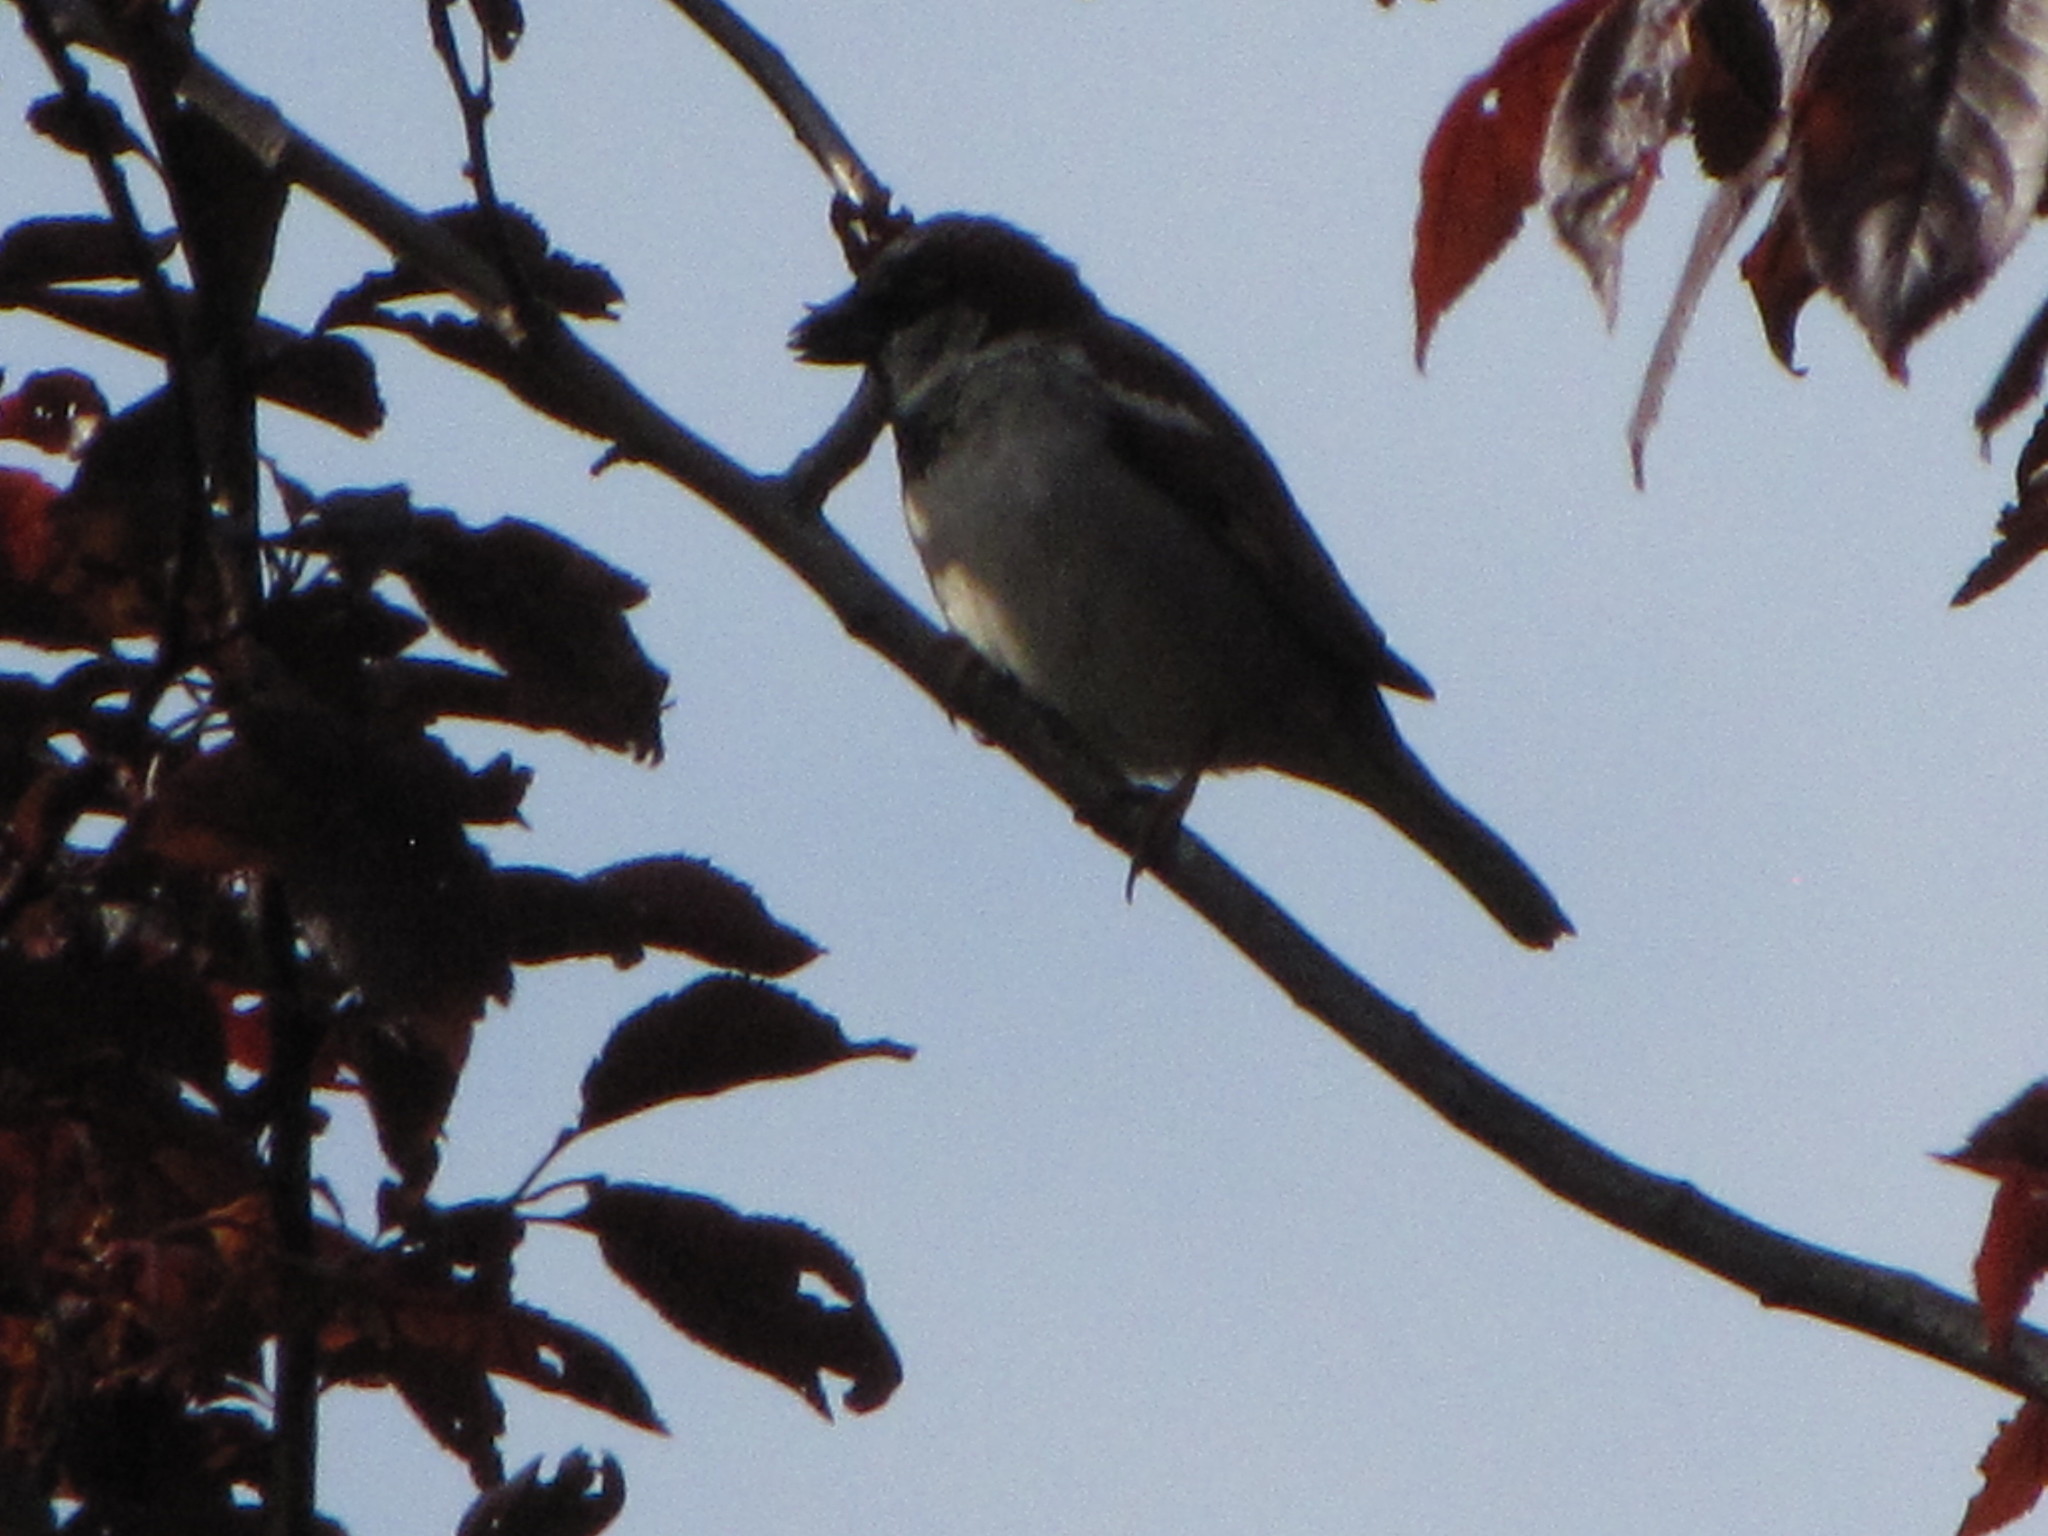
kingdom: Animalia
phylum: Chordata
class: Aves
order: Passeriformes
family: Passeridae
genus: Passer
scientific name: Passer domesticus
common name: House sparrow
